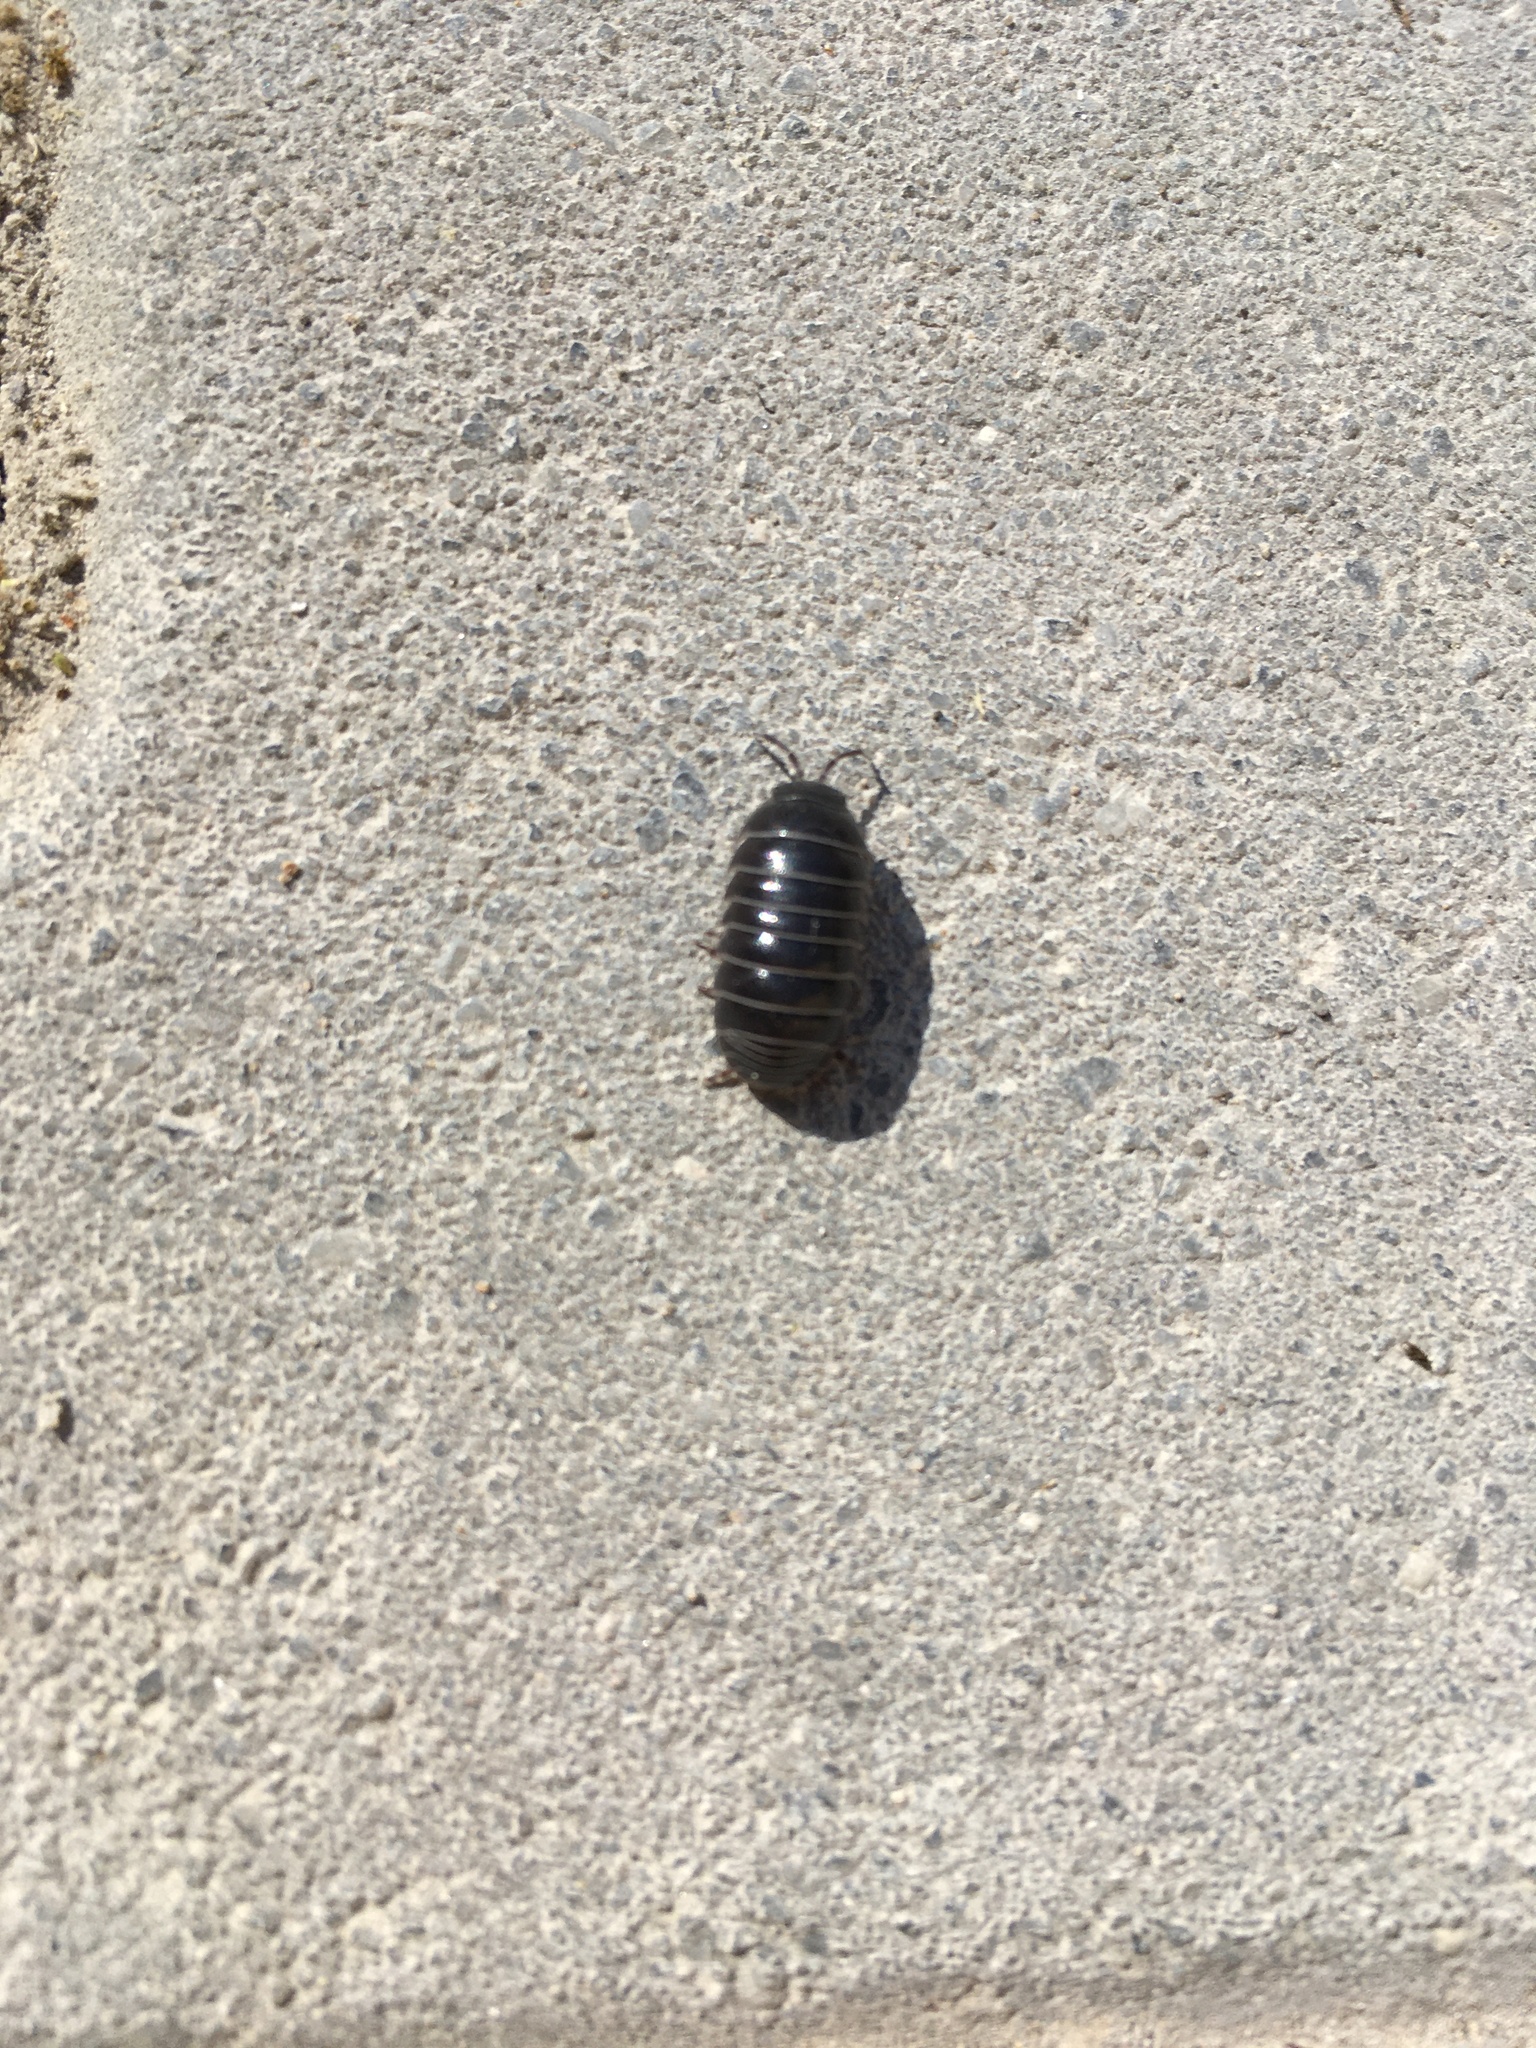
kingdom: Animalia
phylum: Arthropoda
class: Malacostraca
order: Isopoda
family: Armadillidiidae
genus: Armadillidium
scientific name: Armadillidium vulgare
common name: Common pill woodlouse
